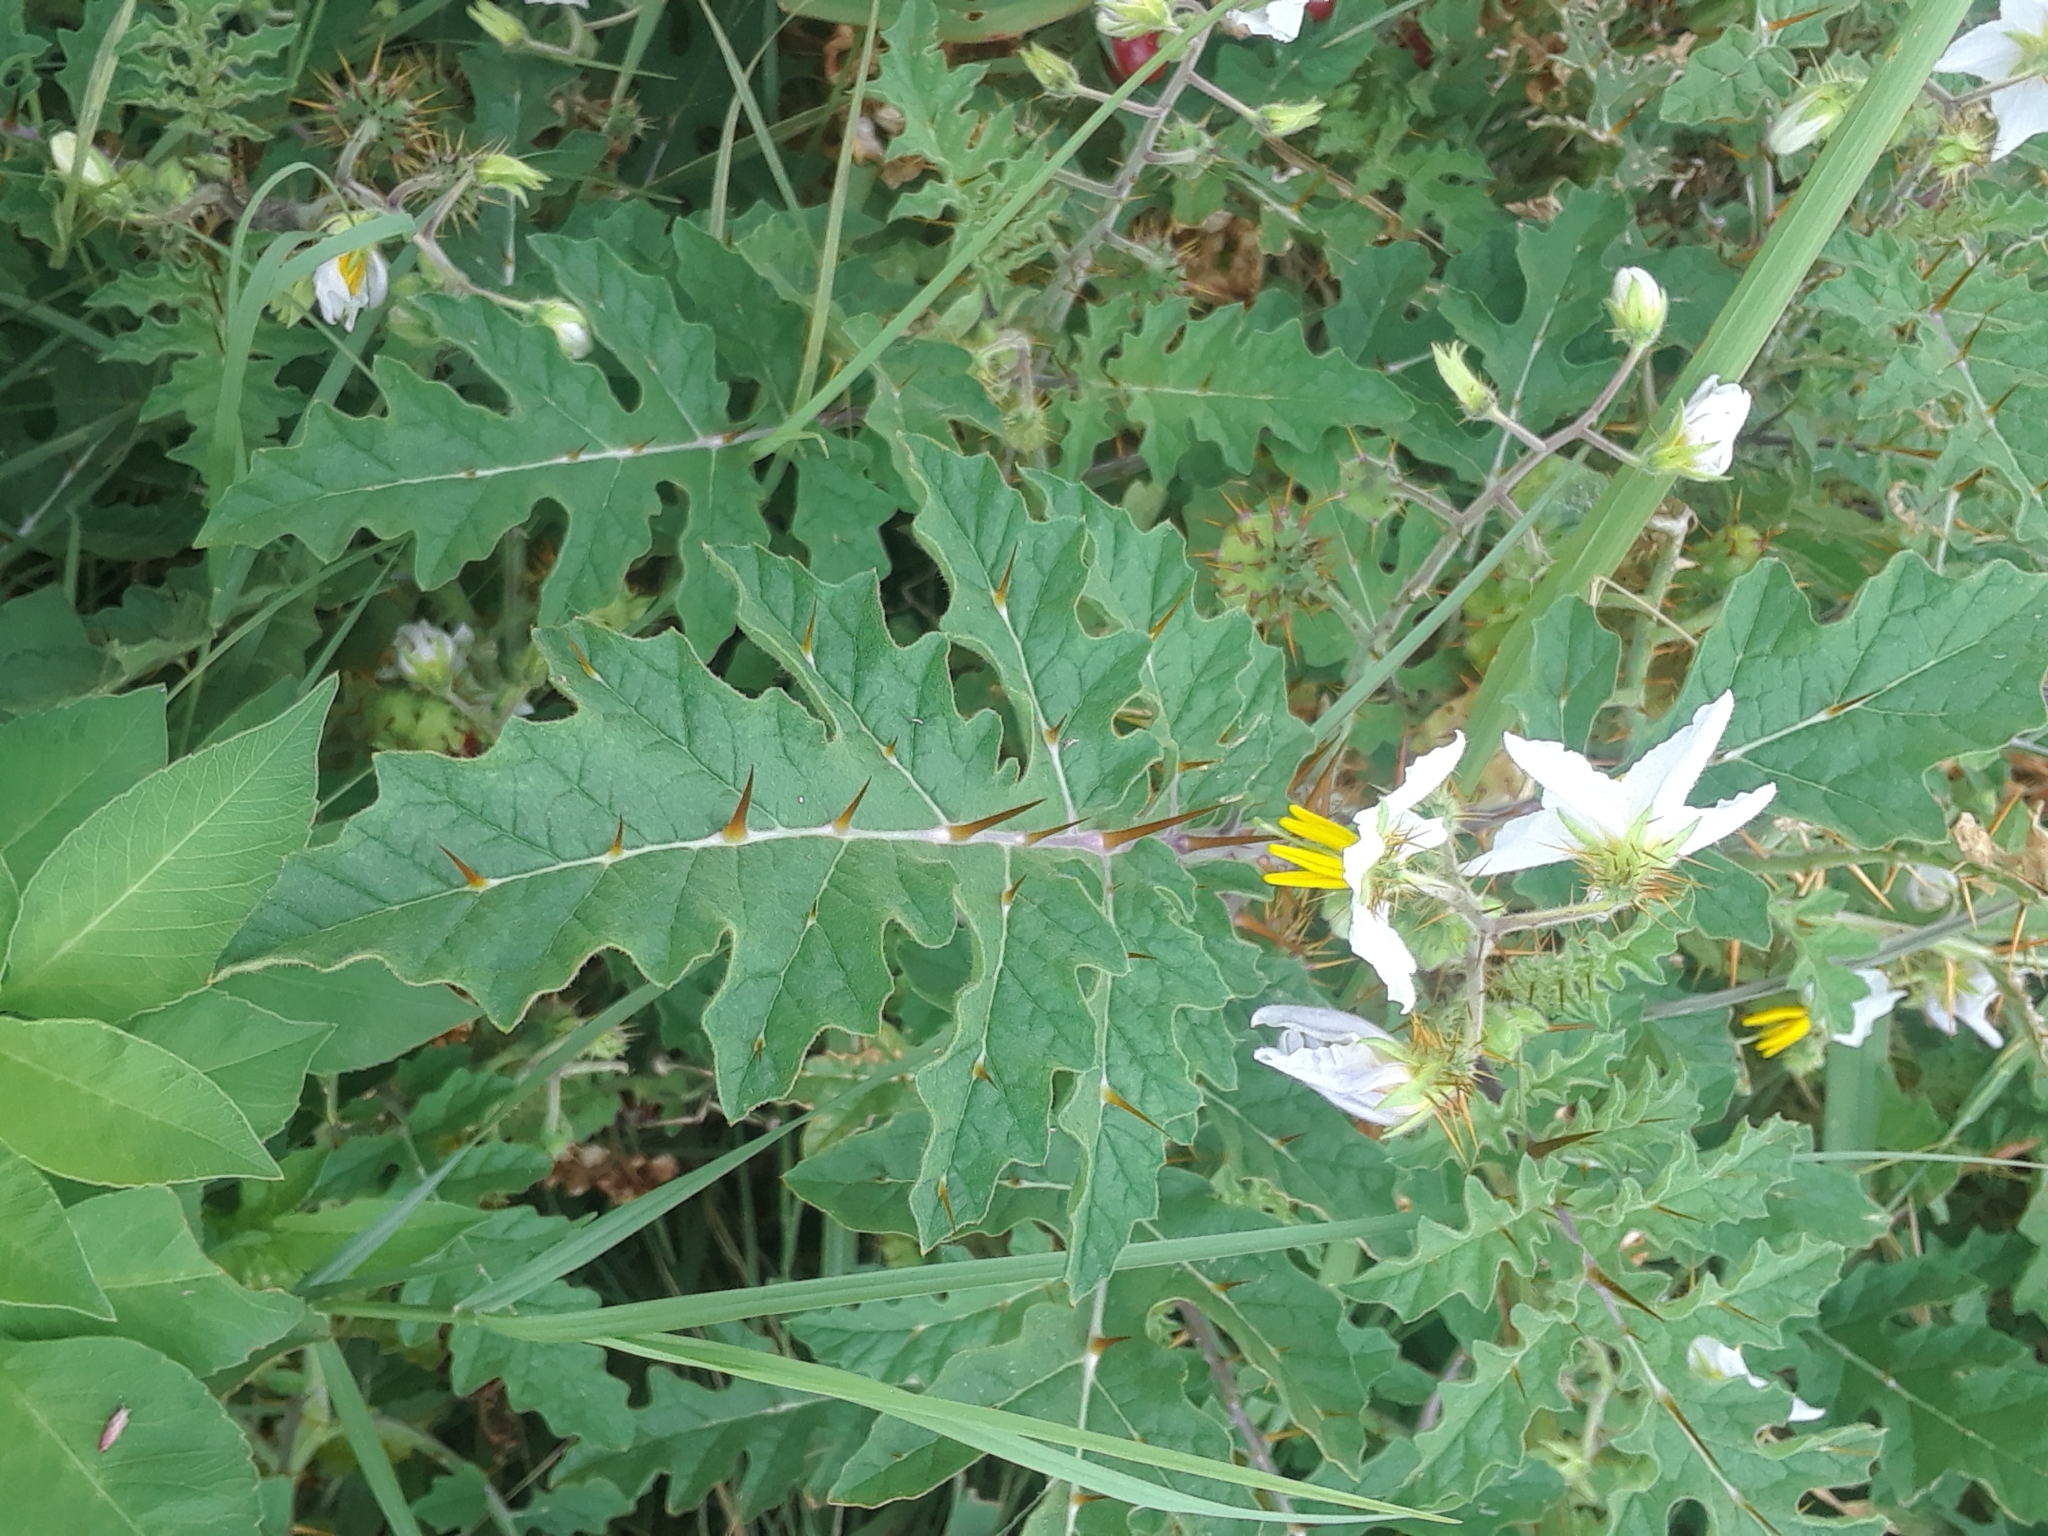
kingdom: Plantae
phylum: Tracheophyta
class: Magnoliopsida
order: Solanales
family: Solanaceae
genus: Solanum
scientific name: Solanum sisymbriifolium
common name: Red buffalo-bur
